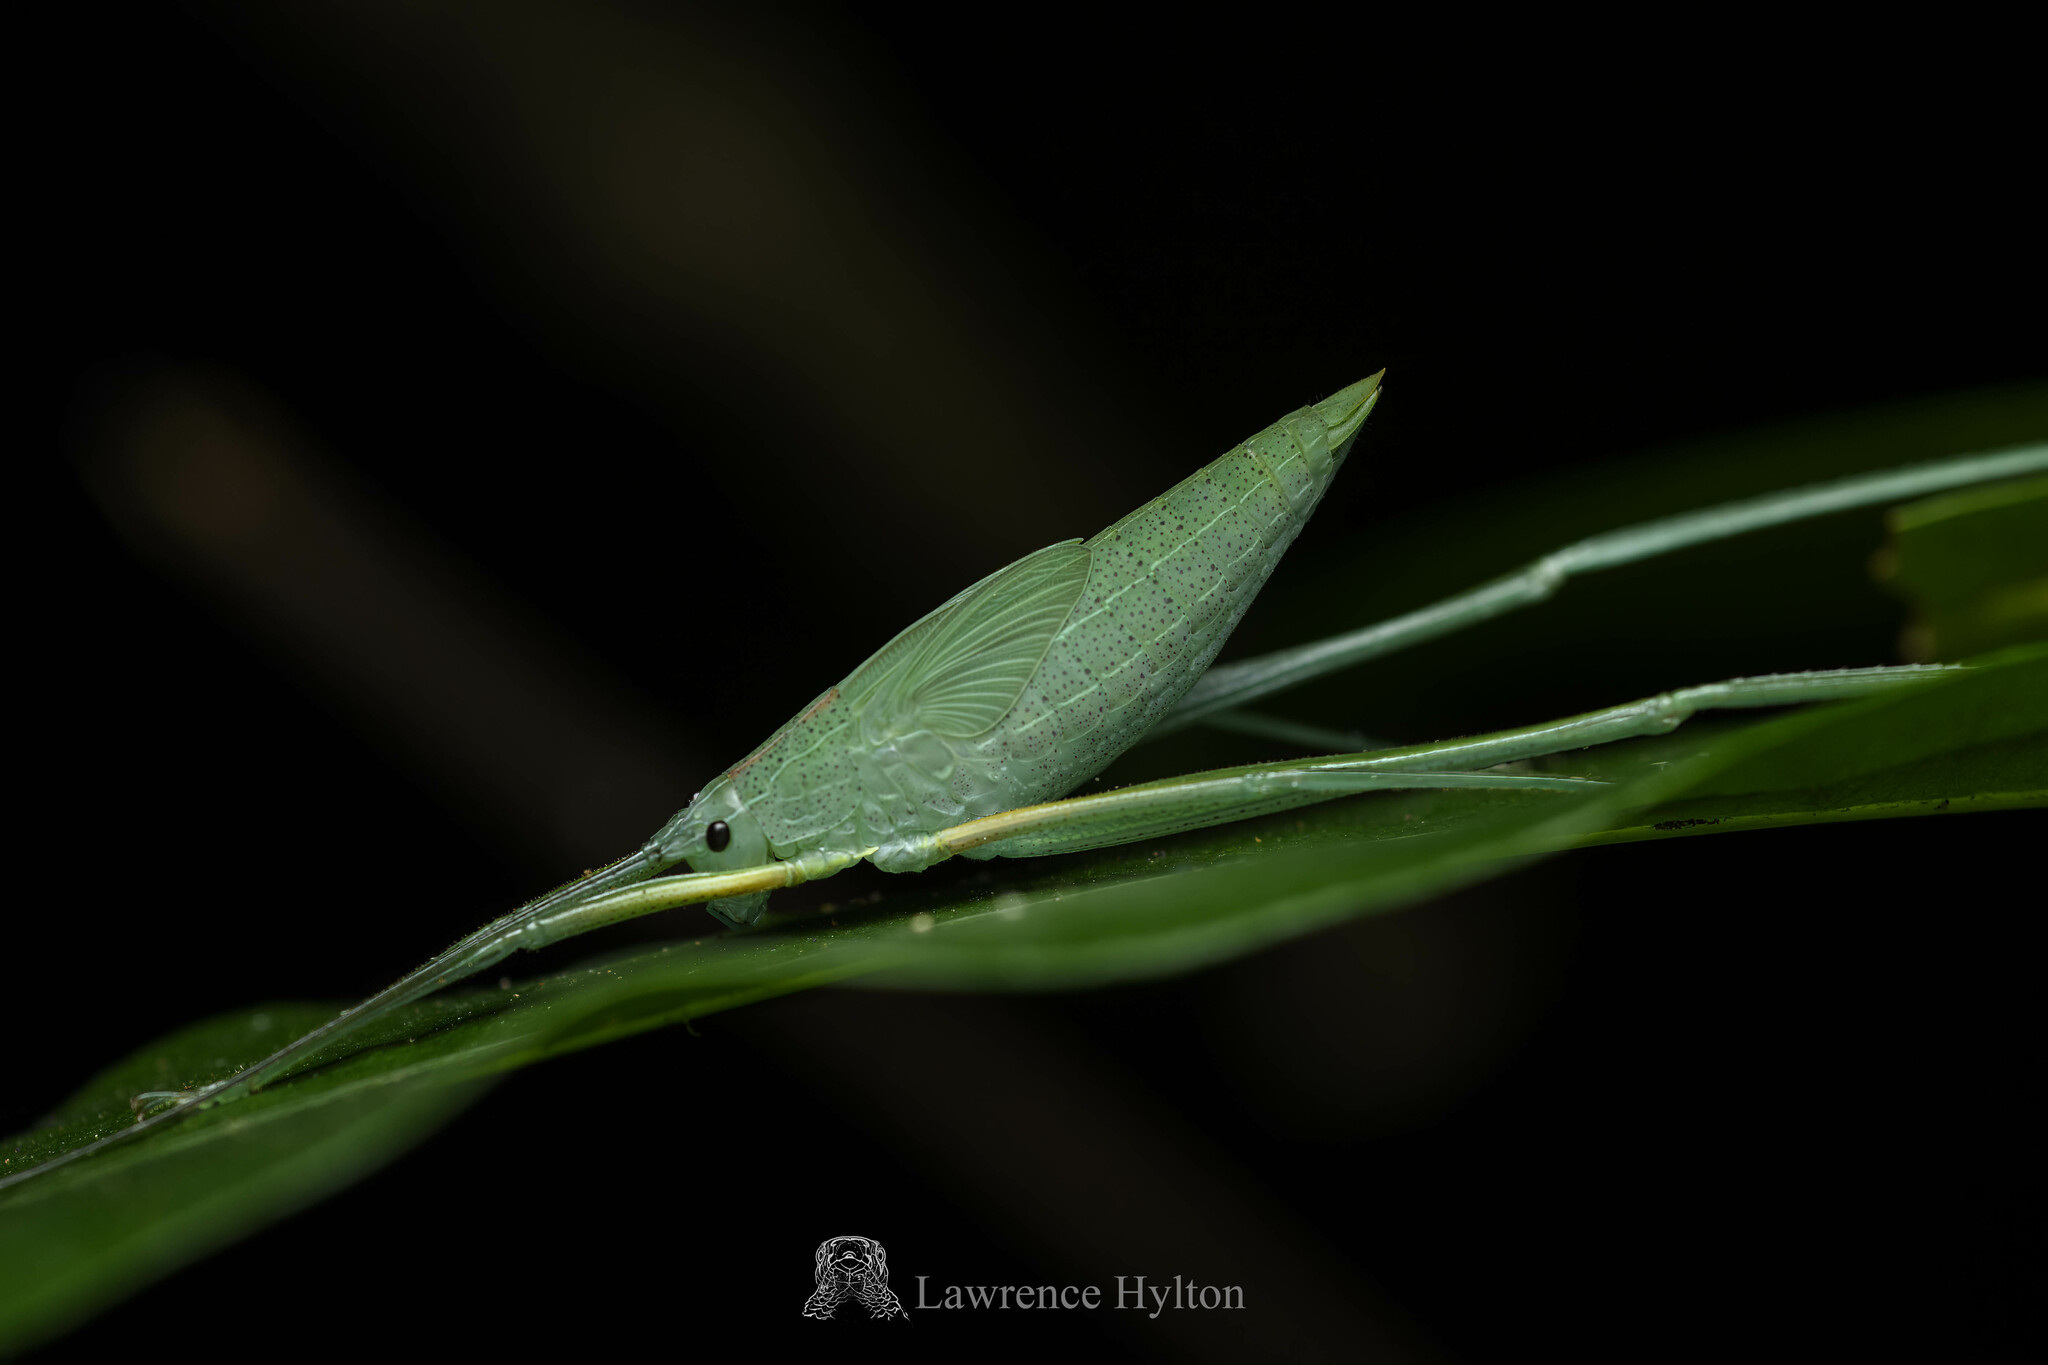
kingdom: Animalia
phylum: Arthropoda
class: Insecta
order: Orthoptera
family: Tettigoniidae
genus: Ducetia
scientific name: Ducetia japonica
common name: Pacific ducetia
